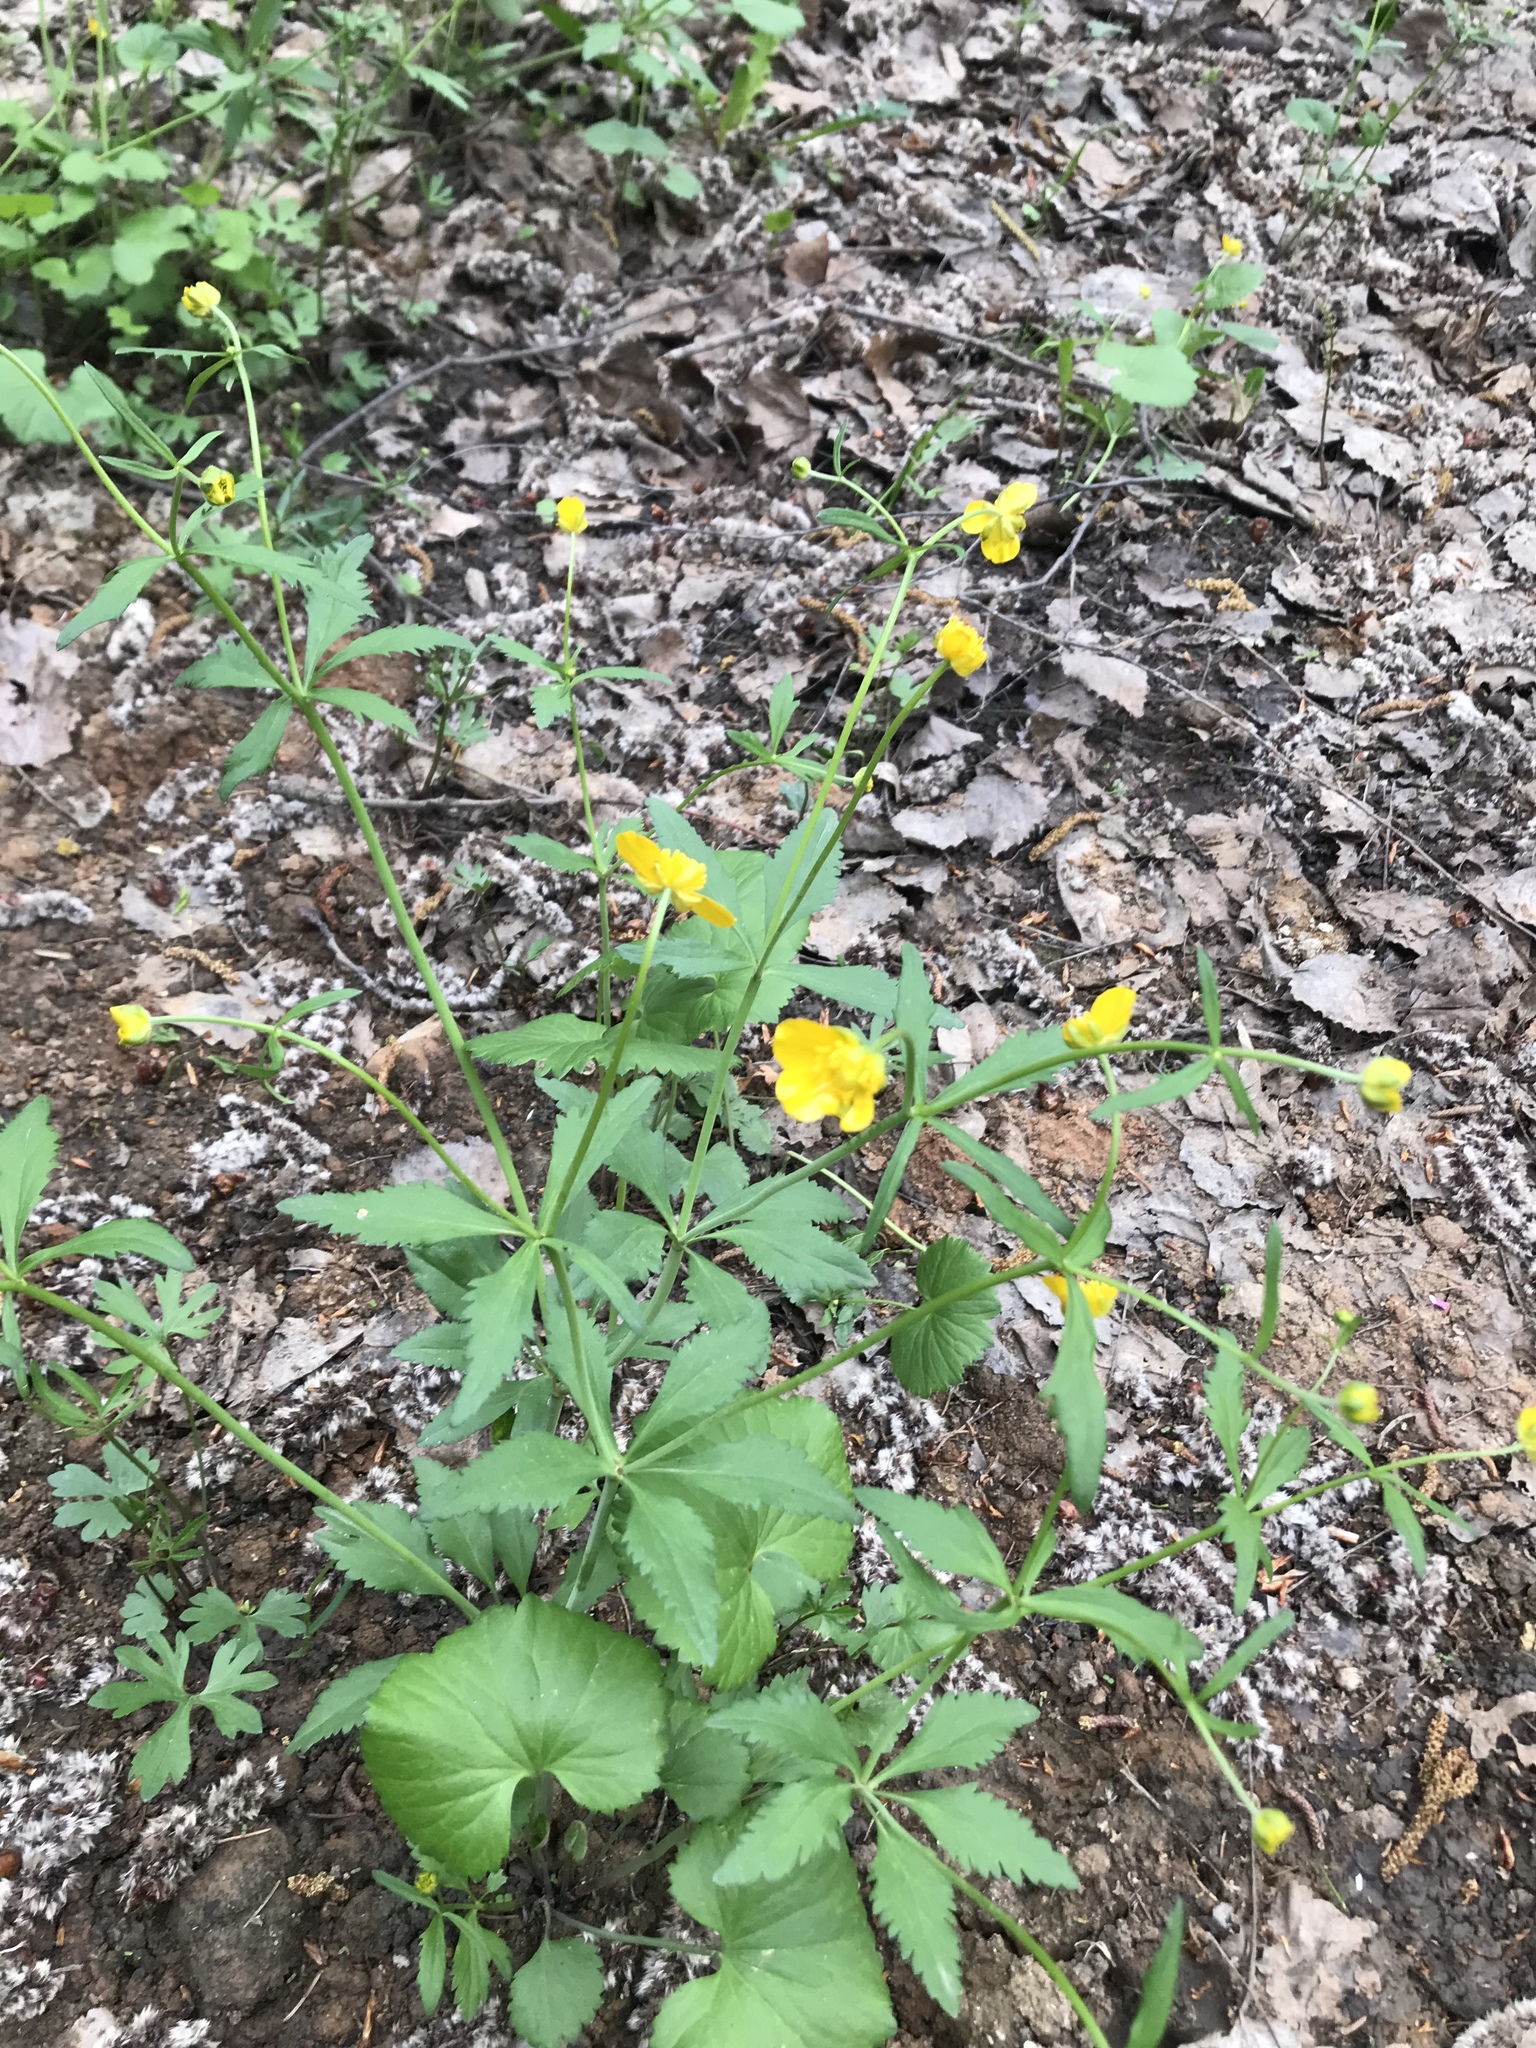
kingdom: Plantae
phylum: Tracheophyta
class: Magnoliopsida
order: Ranunculales
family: Ranunculaceae
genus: Ranunculus
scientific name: Ranunculus cassubicus
